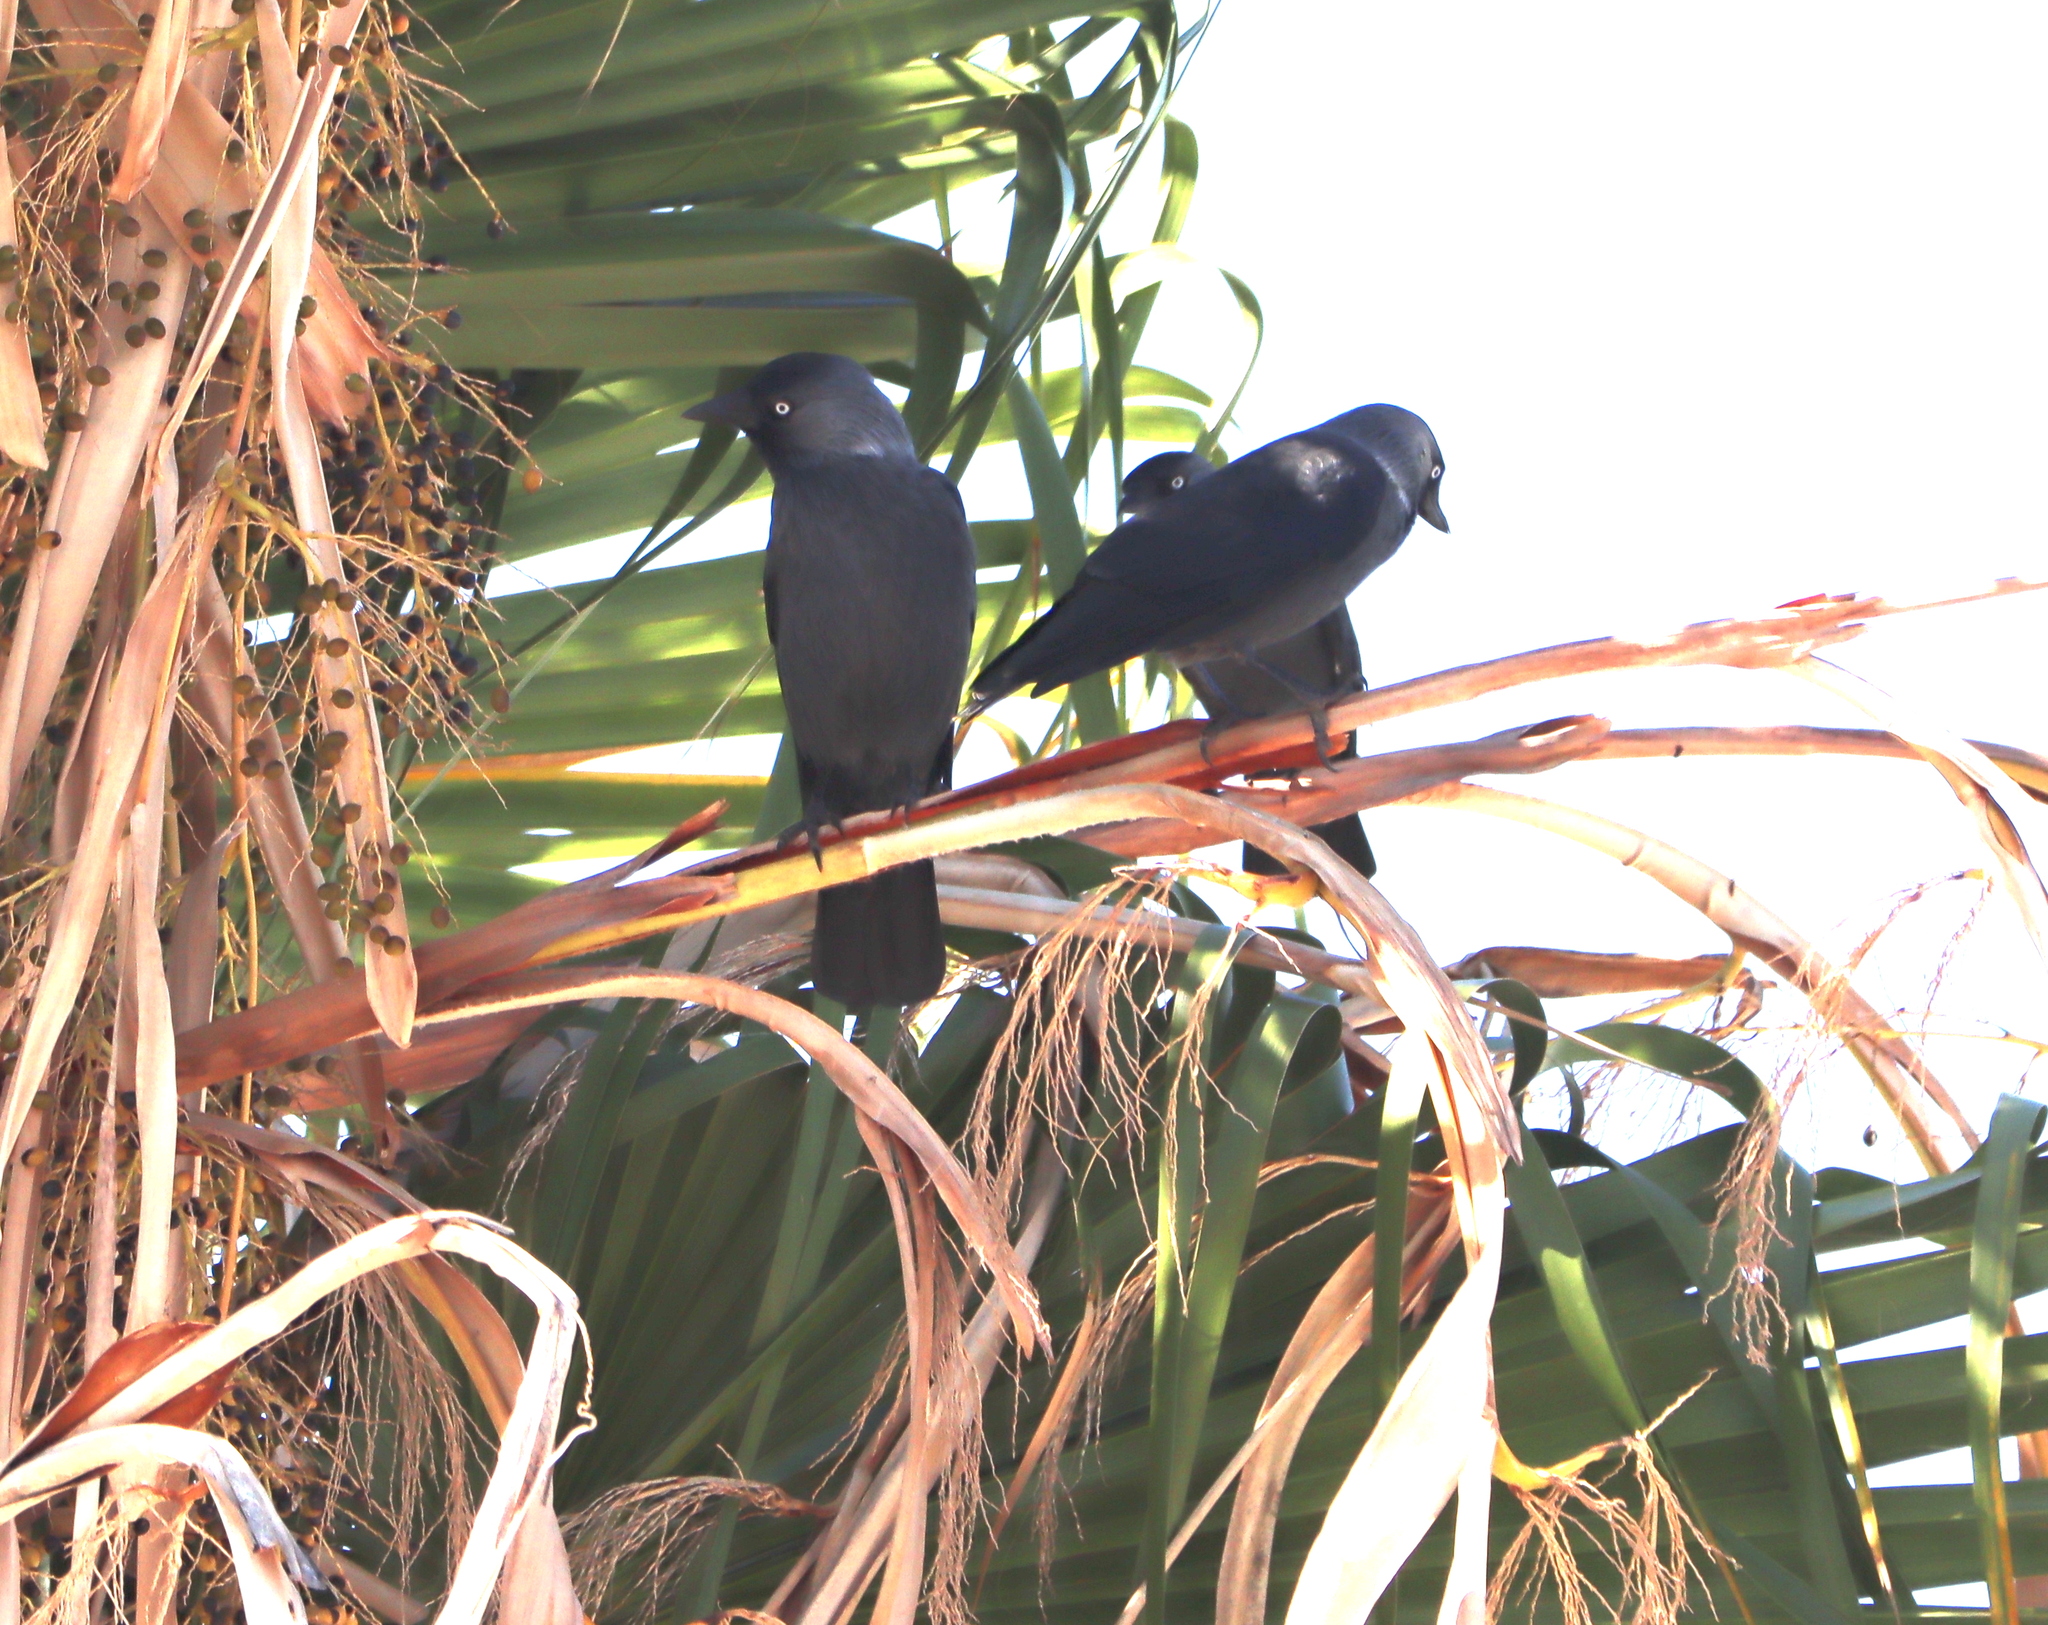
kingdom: Animalia
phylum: Chordata
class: Aves
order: Passeriformes
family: Corvidae
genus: Coloeus
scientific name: Coloeus monedula
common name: Western jackdaw
